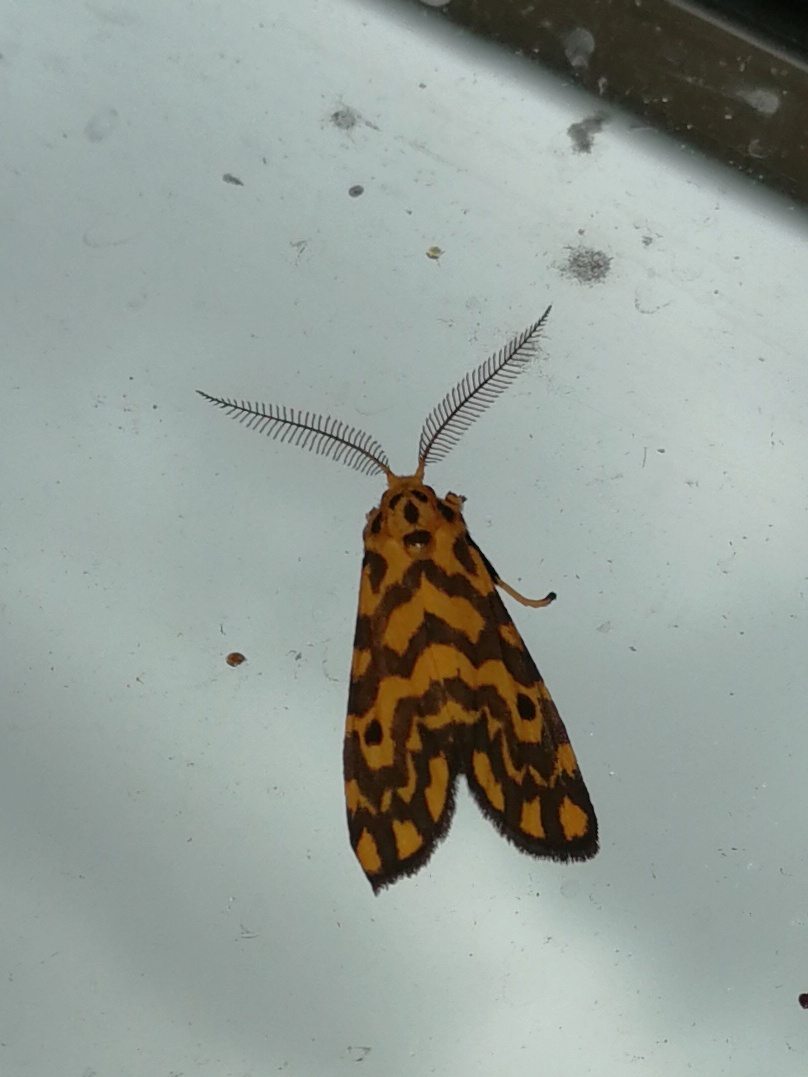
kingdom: Animalia
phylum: Arthropoda
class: Insecta
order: Lepidoptera
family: Erebidae
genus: Nepita
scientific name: Nepita conferta
